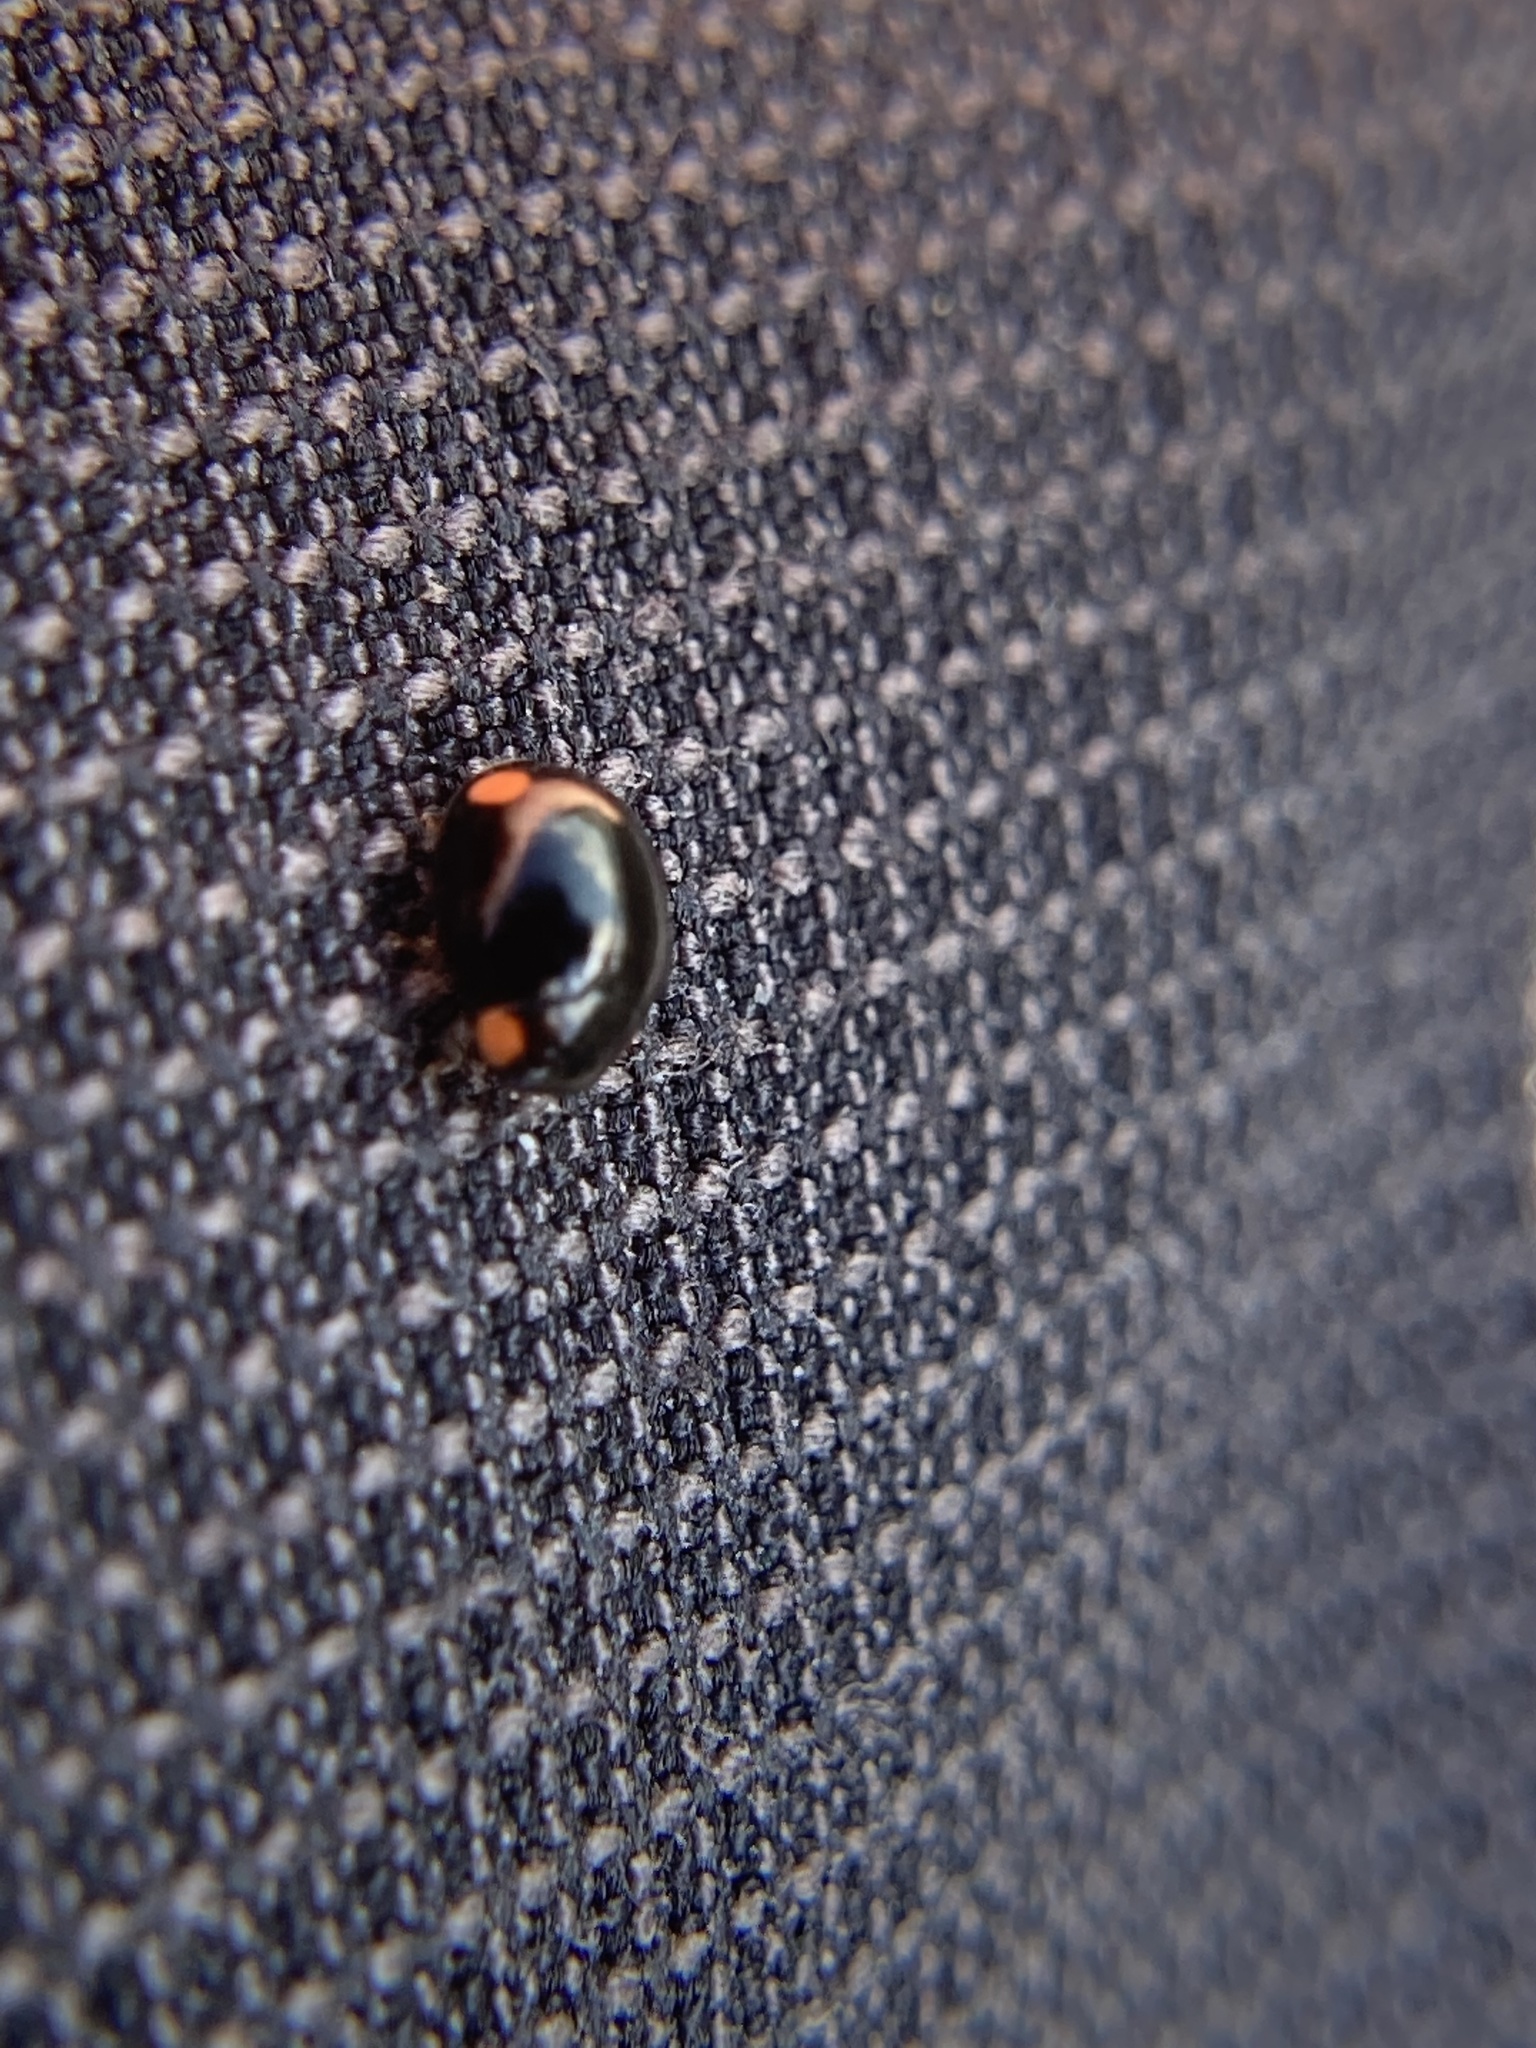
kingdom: Animalia
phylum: Arthropoda
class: Insecta
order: Coleoptera
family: Coccinellidae
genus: Hyperaspis
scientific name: Hyperaspis bigeminata
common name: Bigeminate sigil lady beetle
